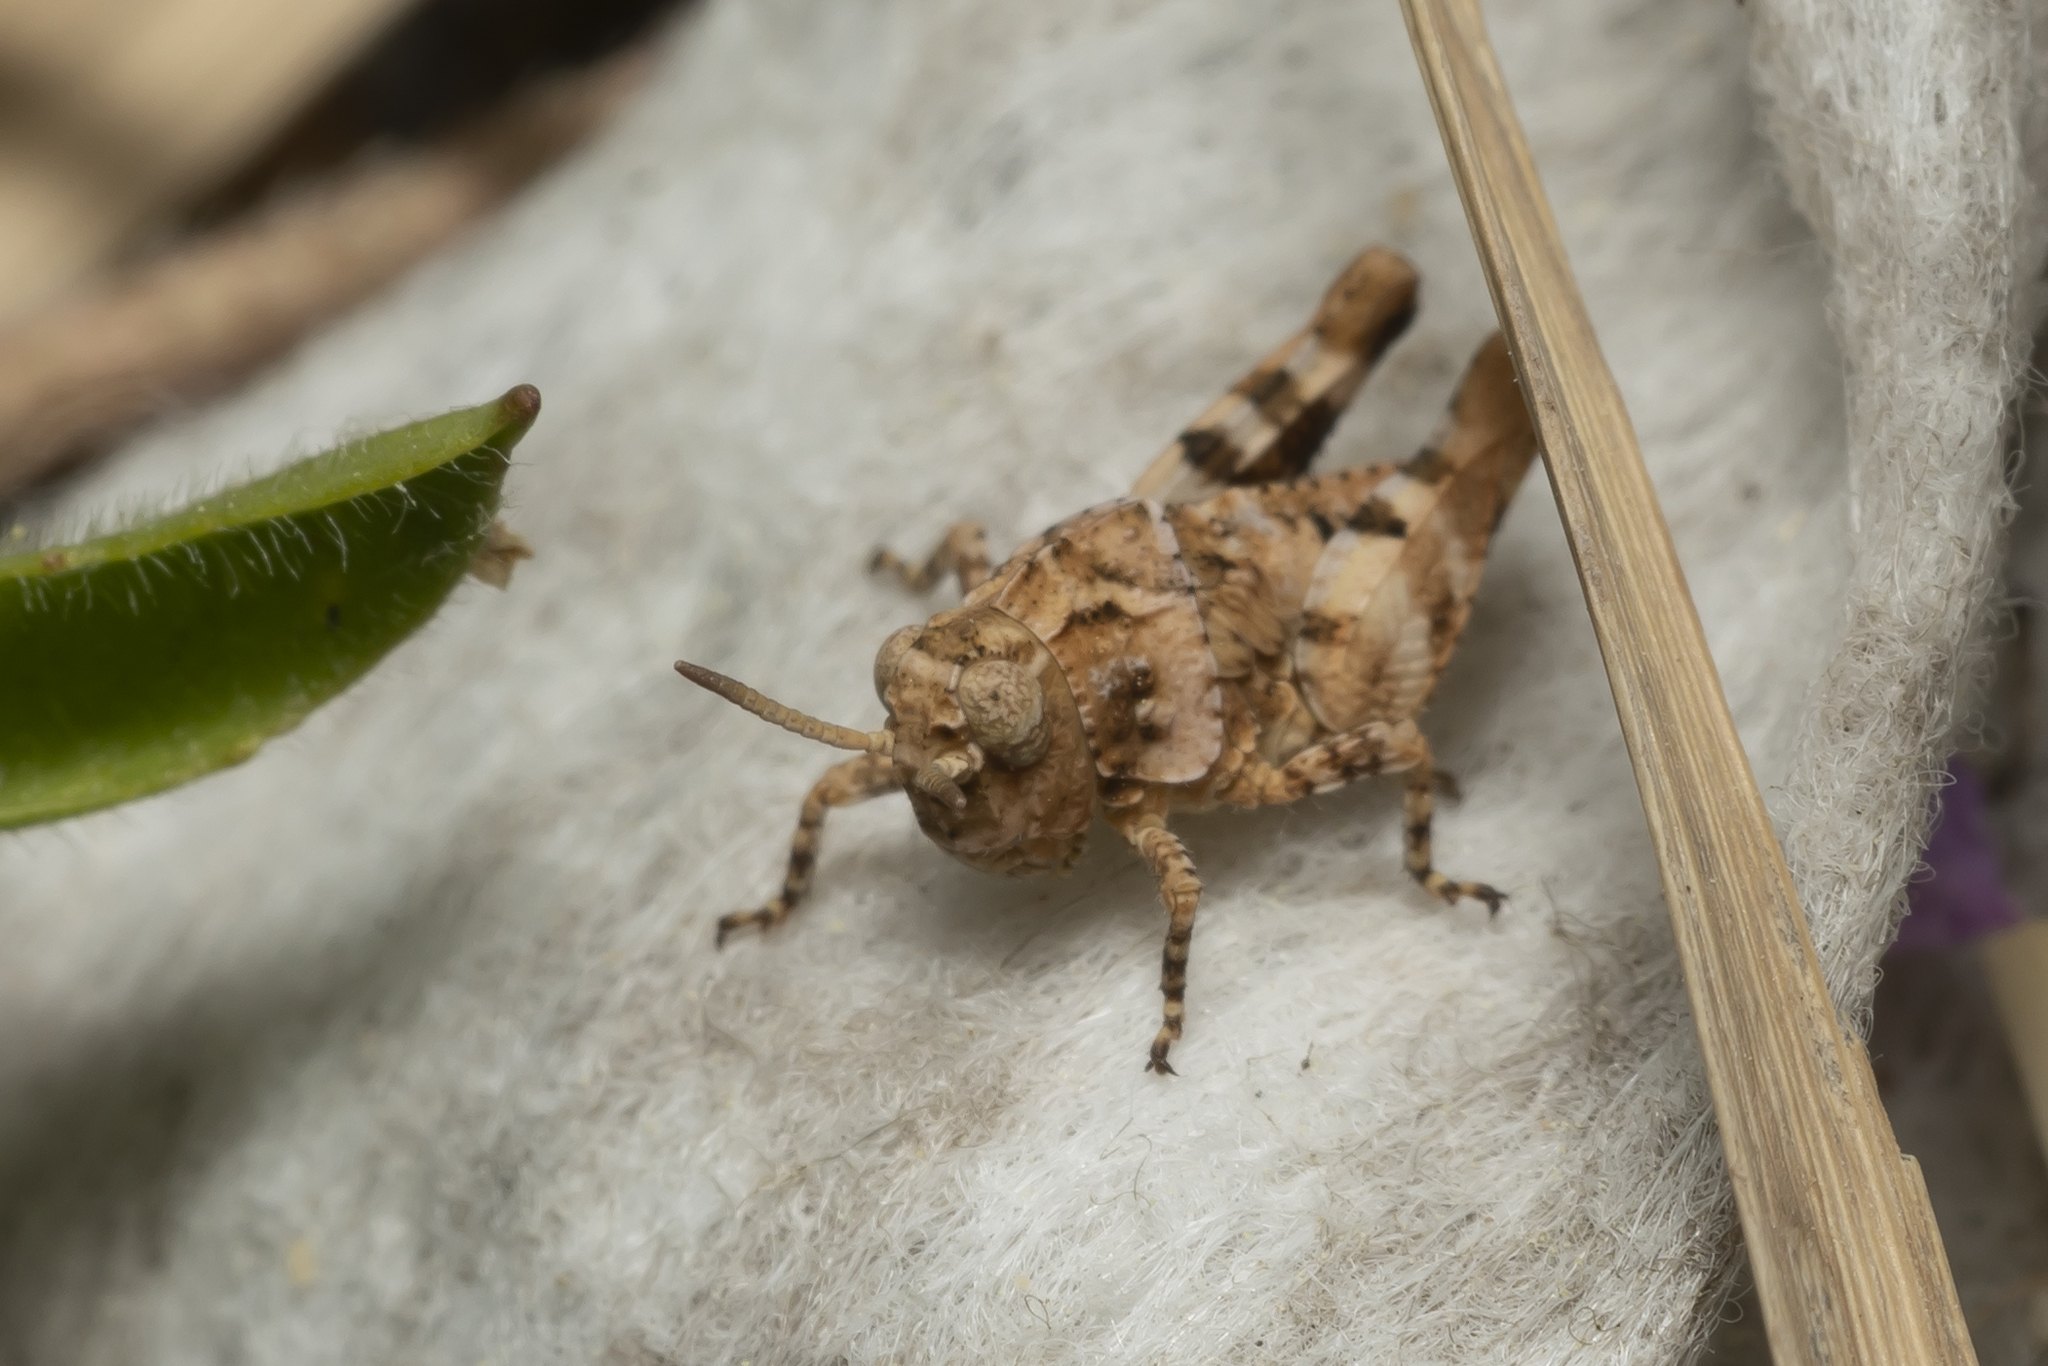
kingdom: Animalia
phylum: Arthropoda
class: Insecta
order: Orthoptera
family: Acrididae
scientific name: Acrididae
